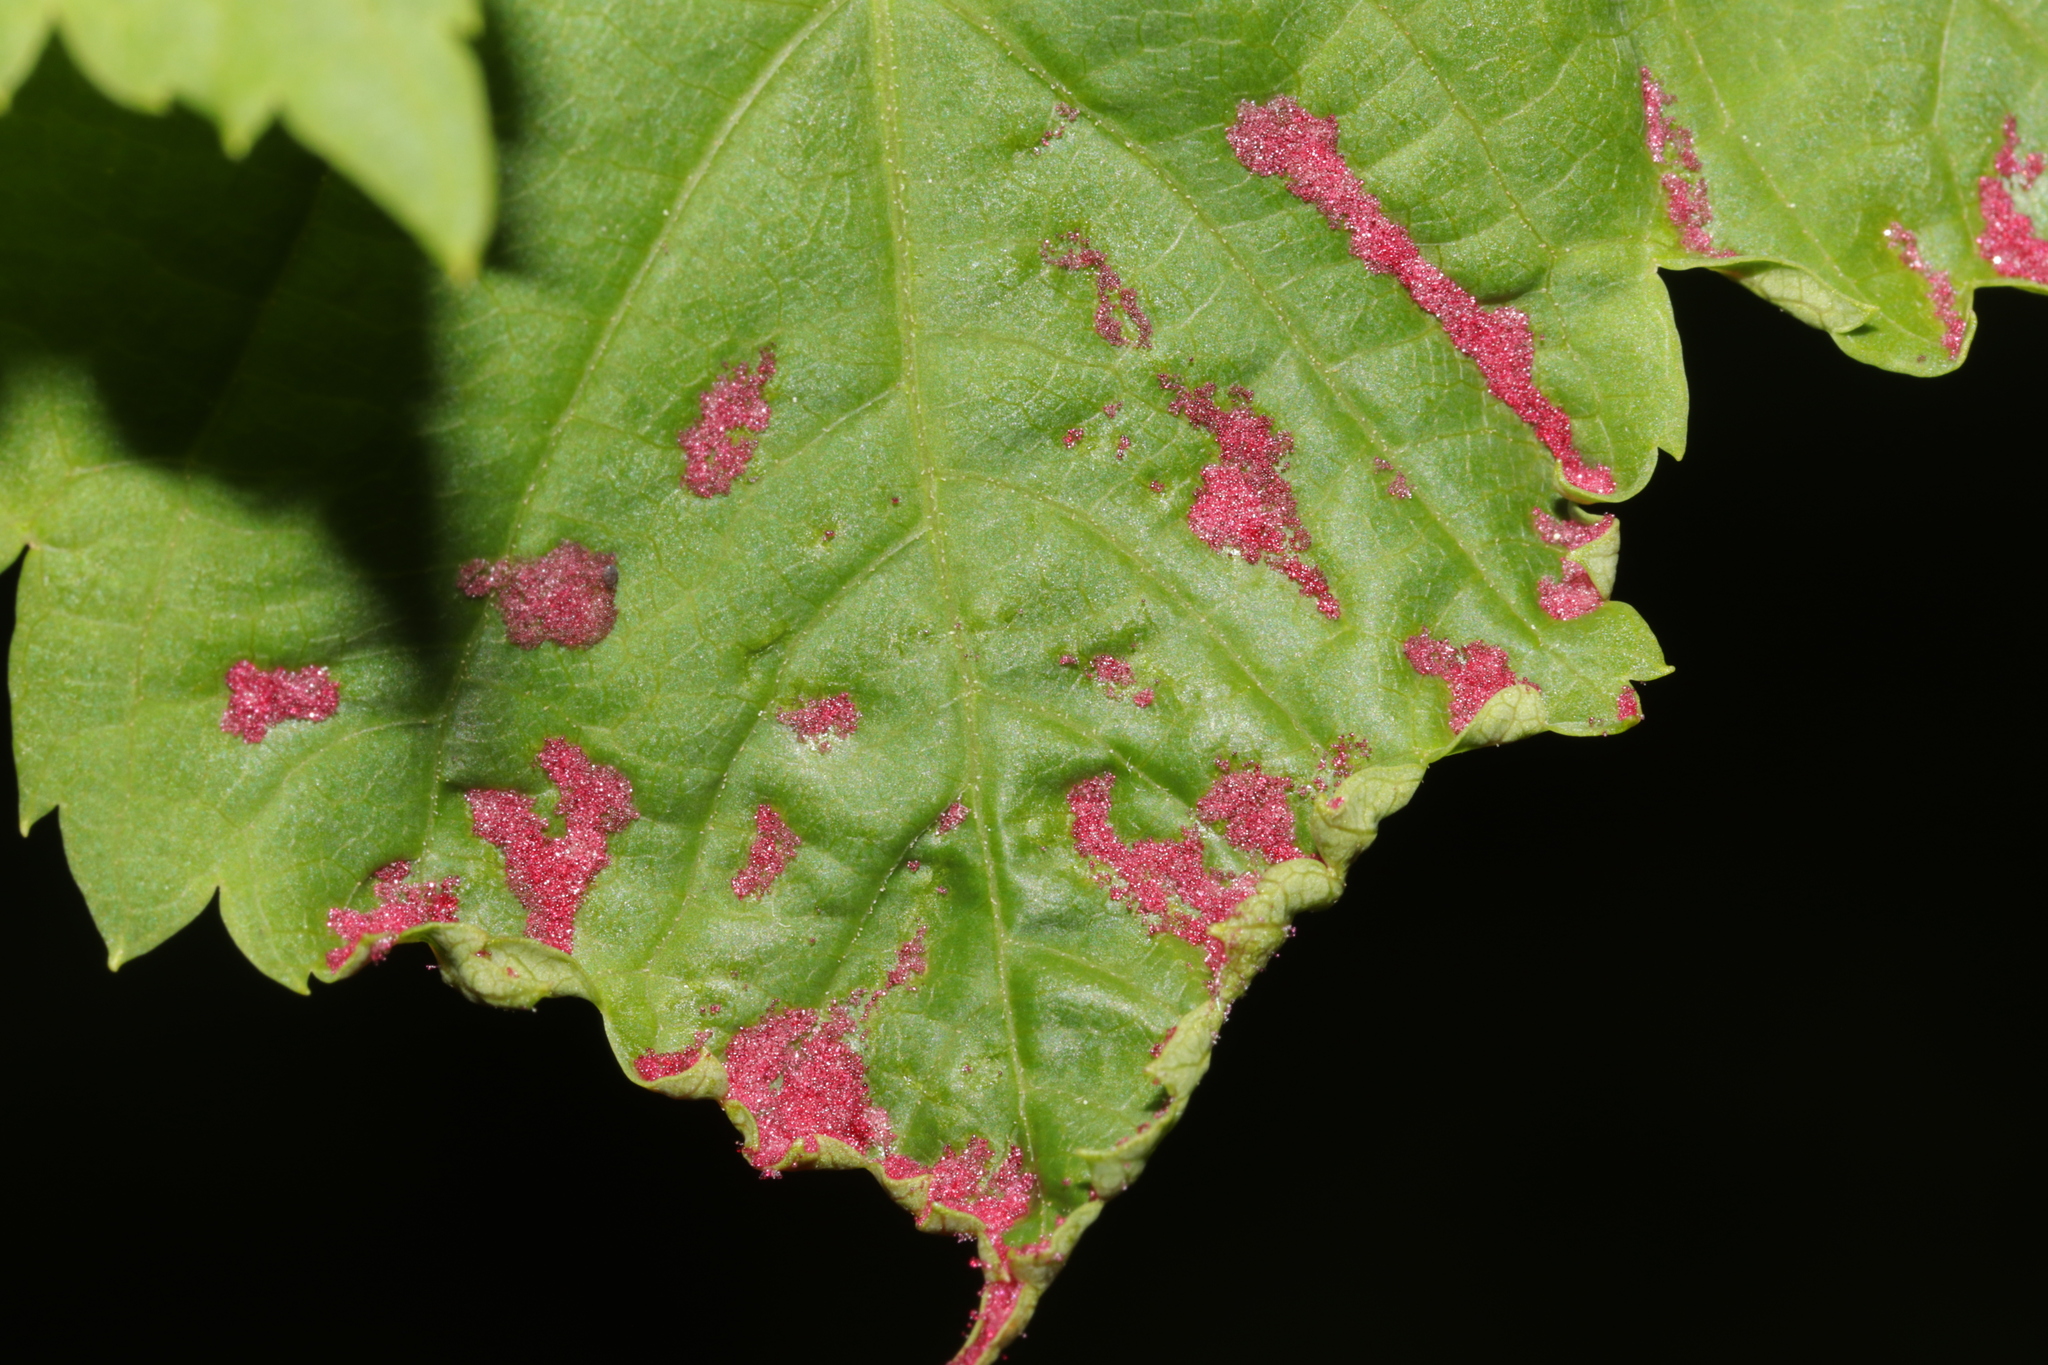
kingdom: Animalia
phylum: Arthropoda
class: Arachnida
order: Trombidiformes
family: Eriophyidae
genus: Aceria
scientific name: Aceria
